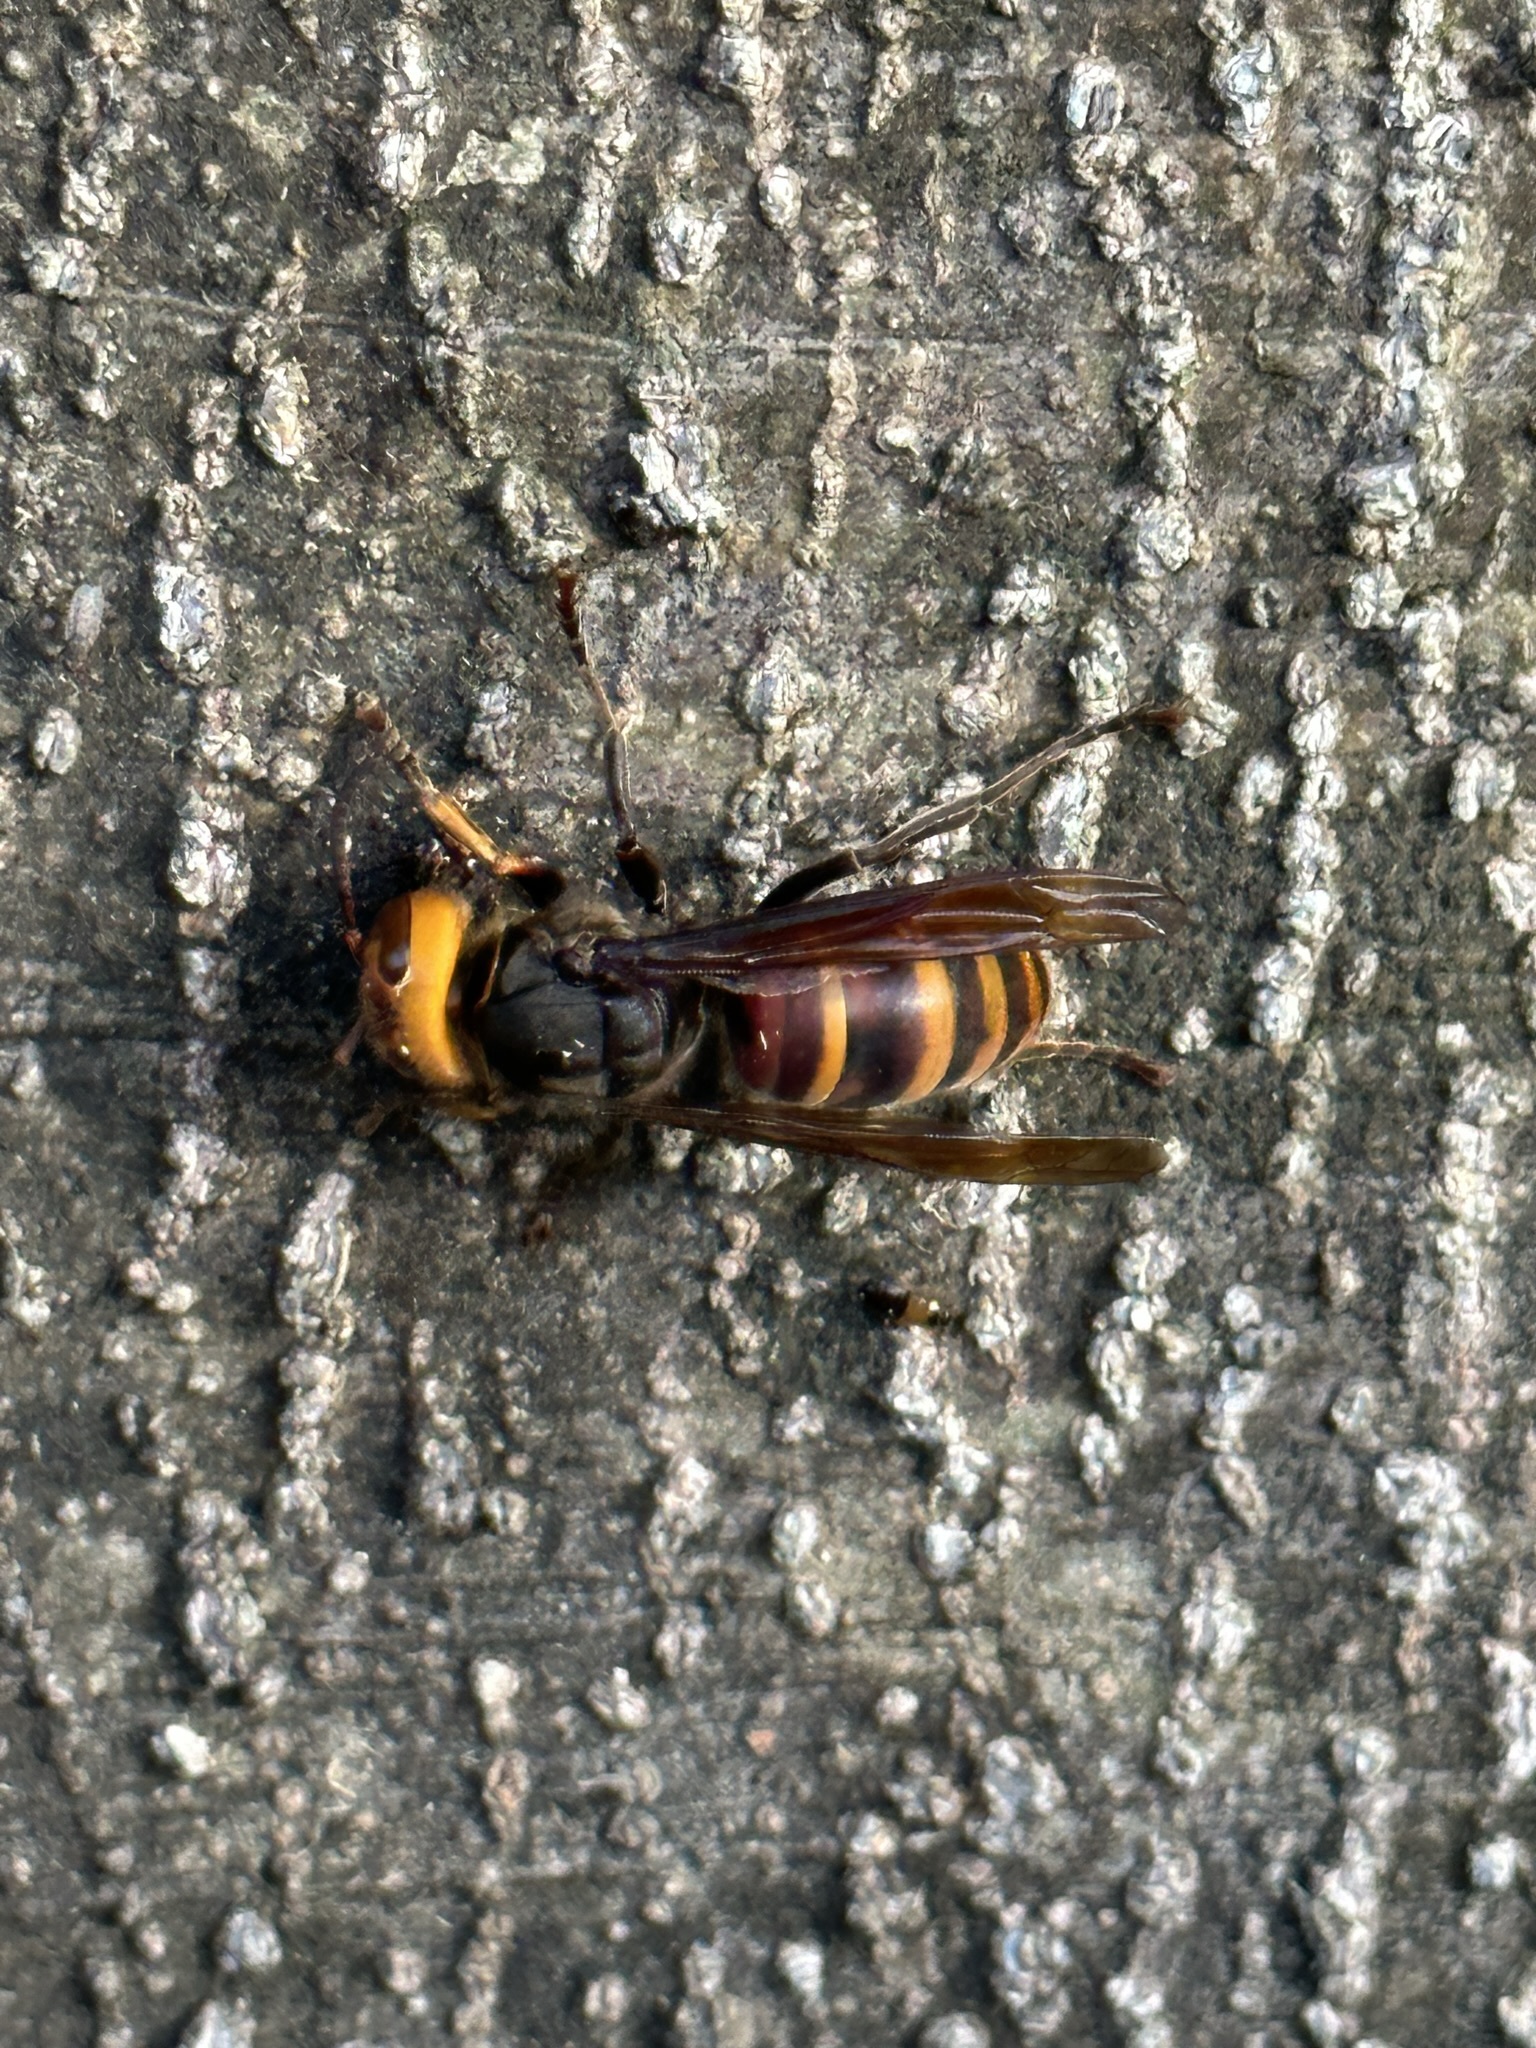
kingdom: Animalia
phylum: Arthropoda
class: Insecta
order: Hymenoptera
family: Vespidae
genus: Vespa
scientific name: Vespa analis
